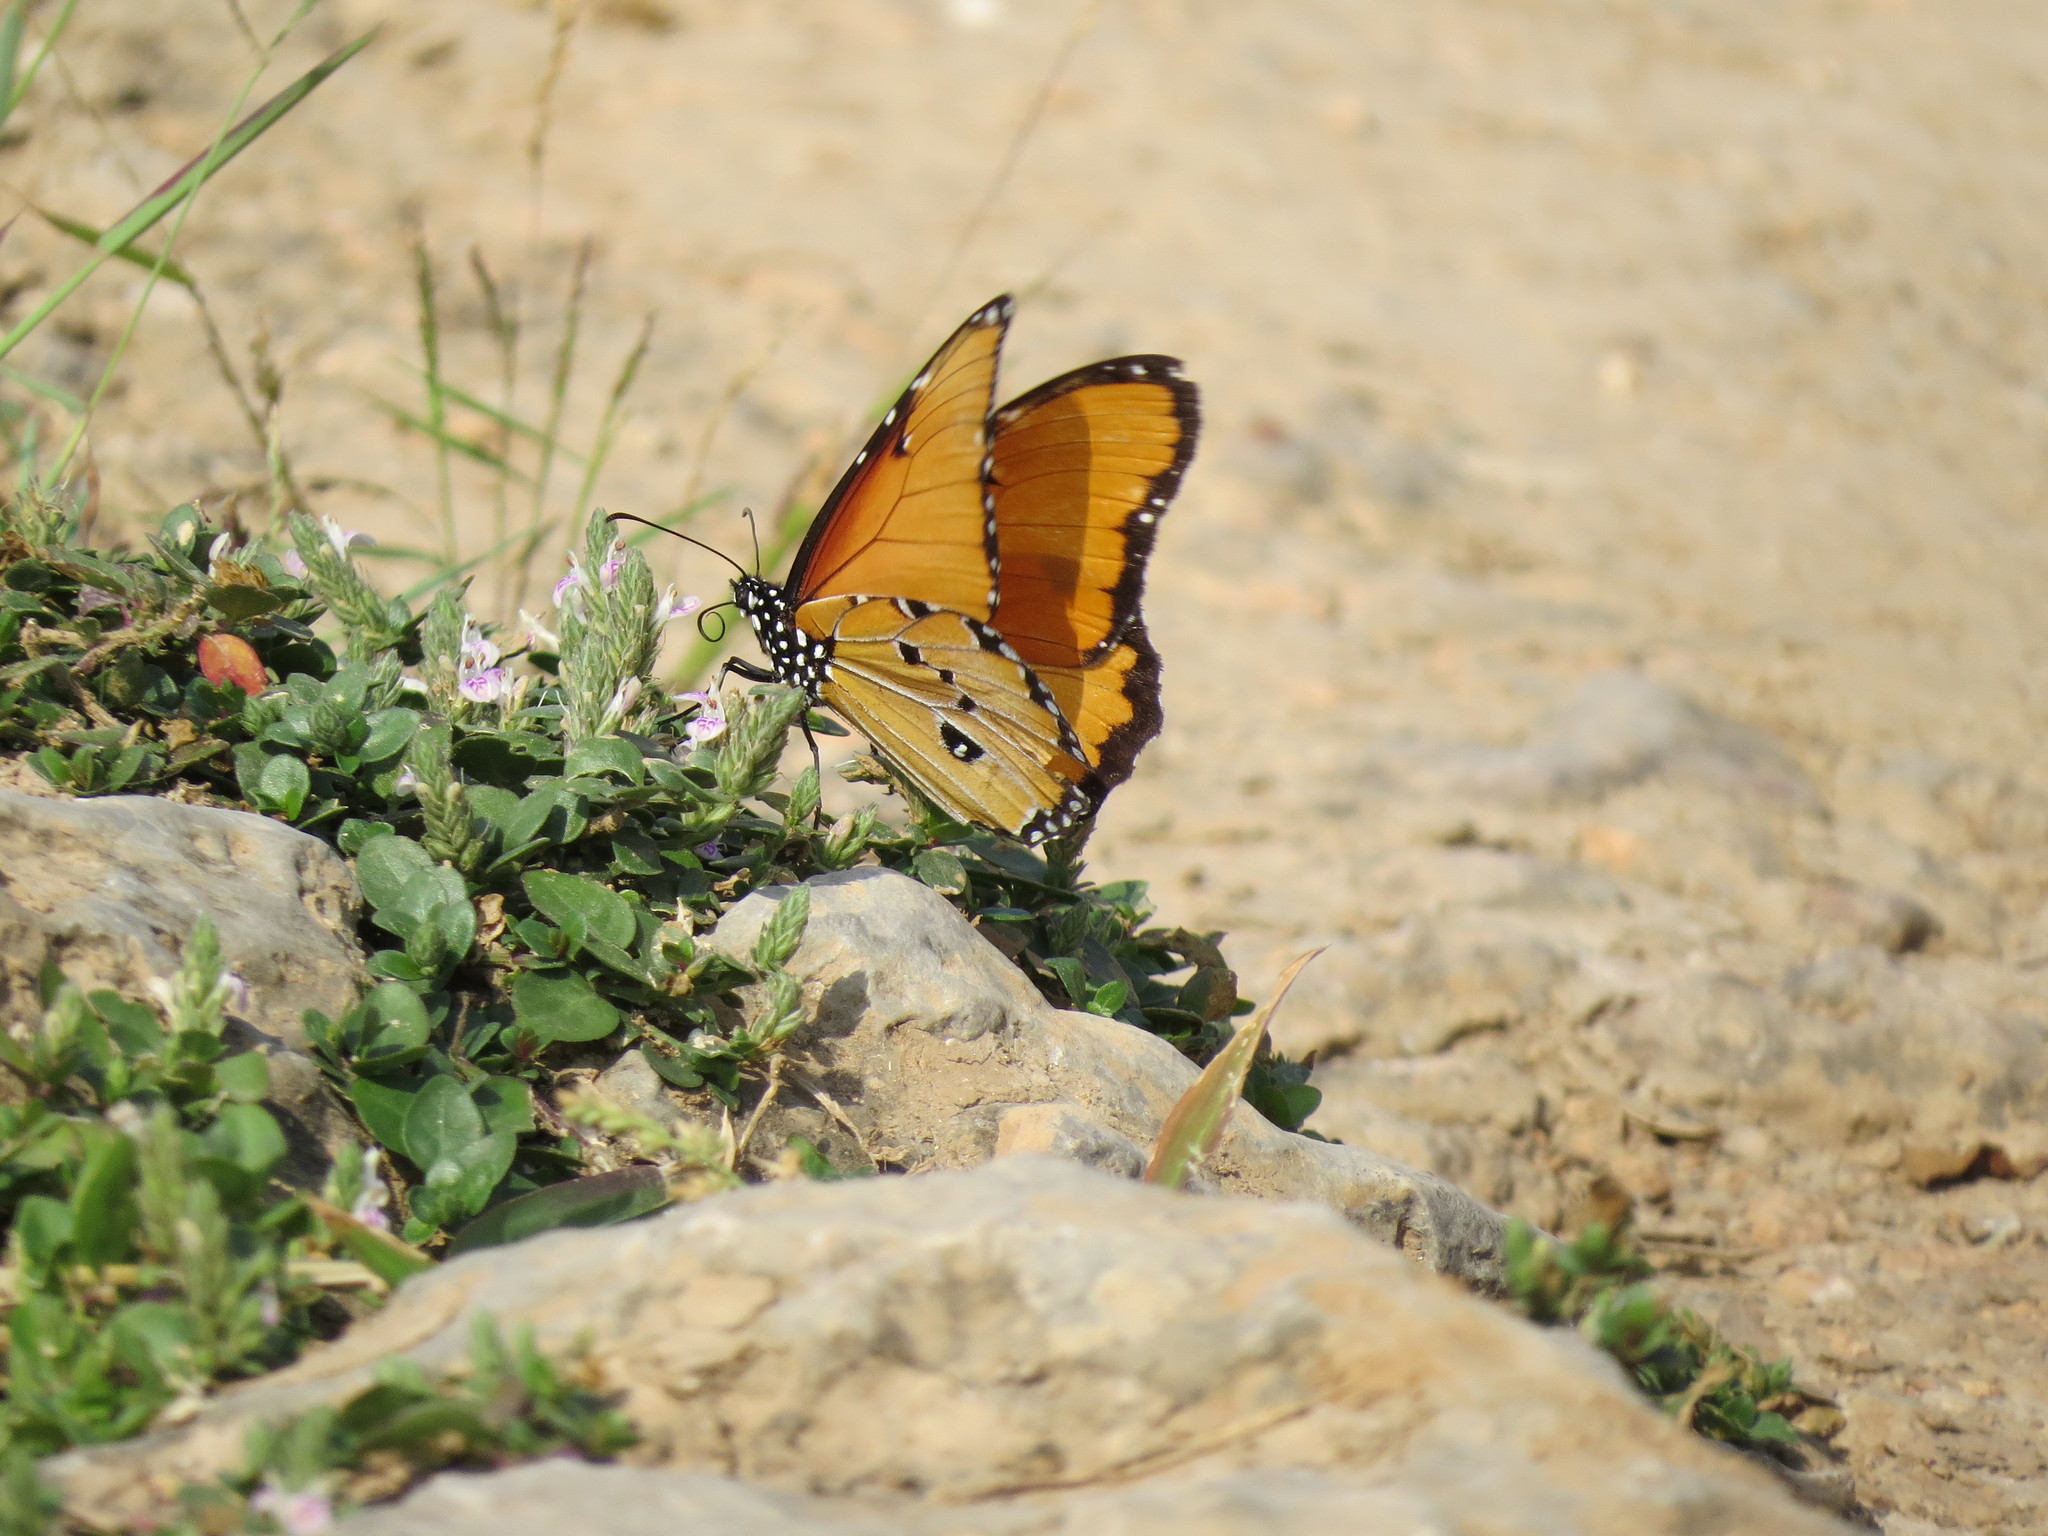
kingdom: Animalia
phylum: Arthropoda
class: Insecta
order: Lepidoptera
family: Nymphalidae
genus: Danaus
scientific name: Danaus chrysippus
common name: Plain tiger
